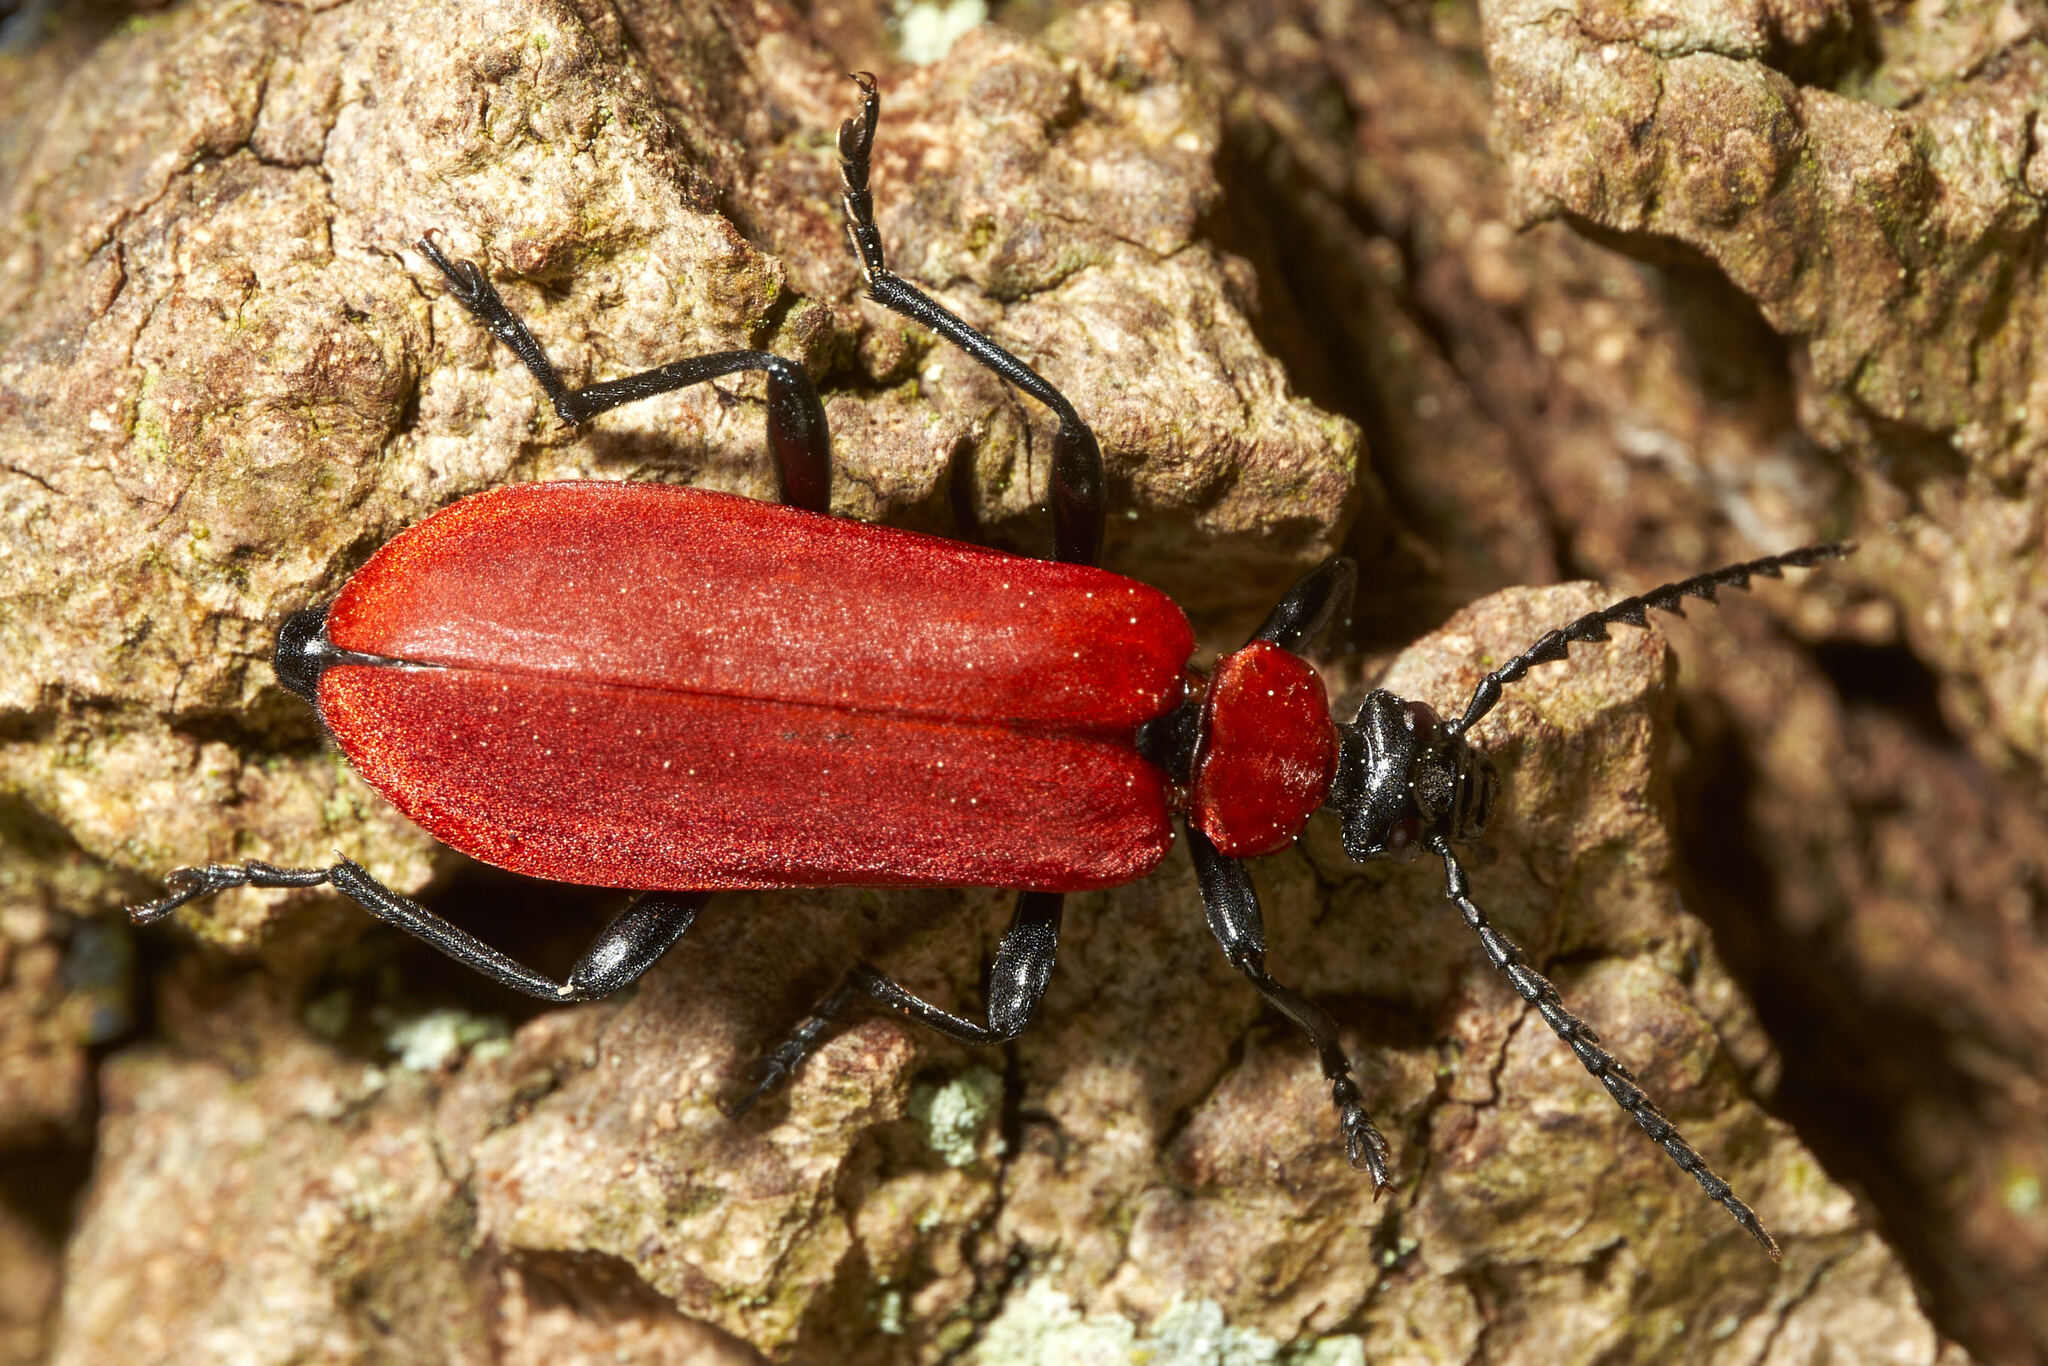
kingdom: Animalia
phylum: Arthropoda
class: Insecta
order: Coleoptera
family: Pyrochroidae
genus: Pyrochroa
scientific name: Pyrochroa coccinea
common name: Black-headed cardinal beetle
